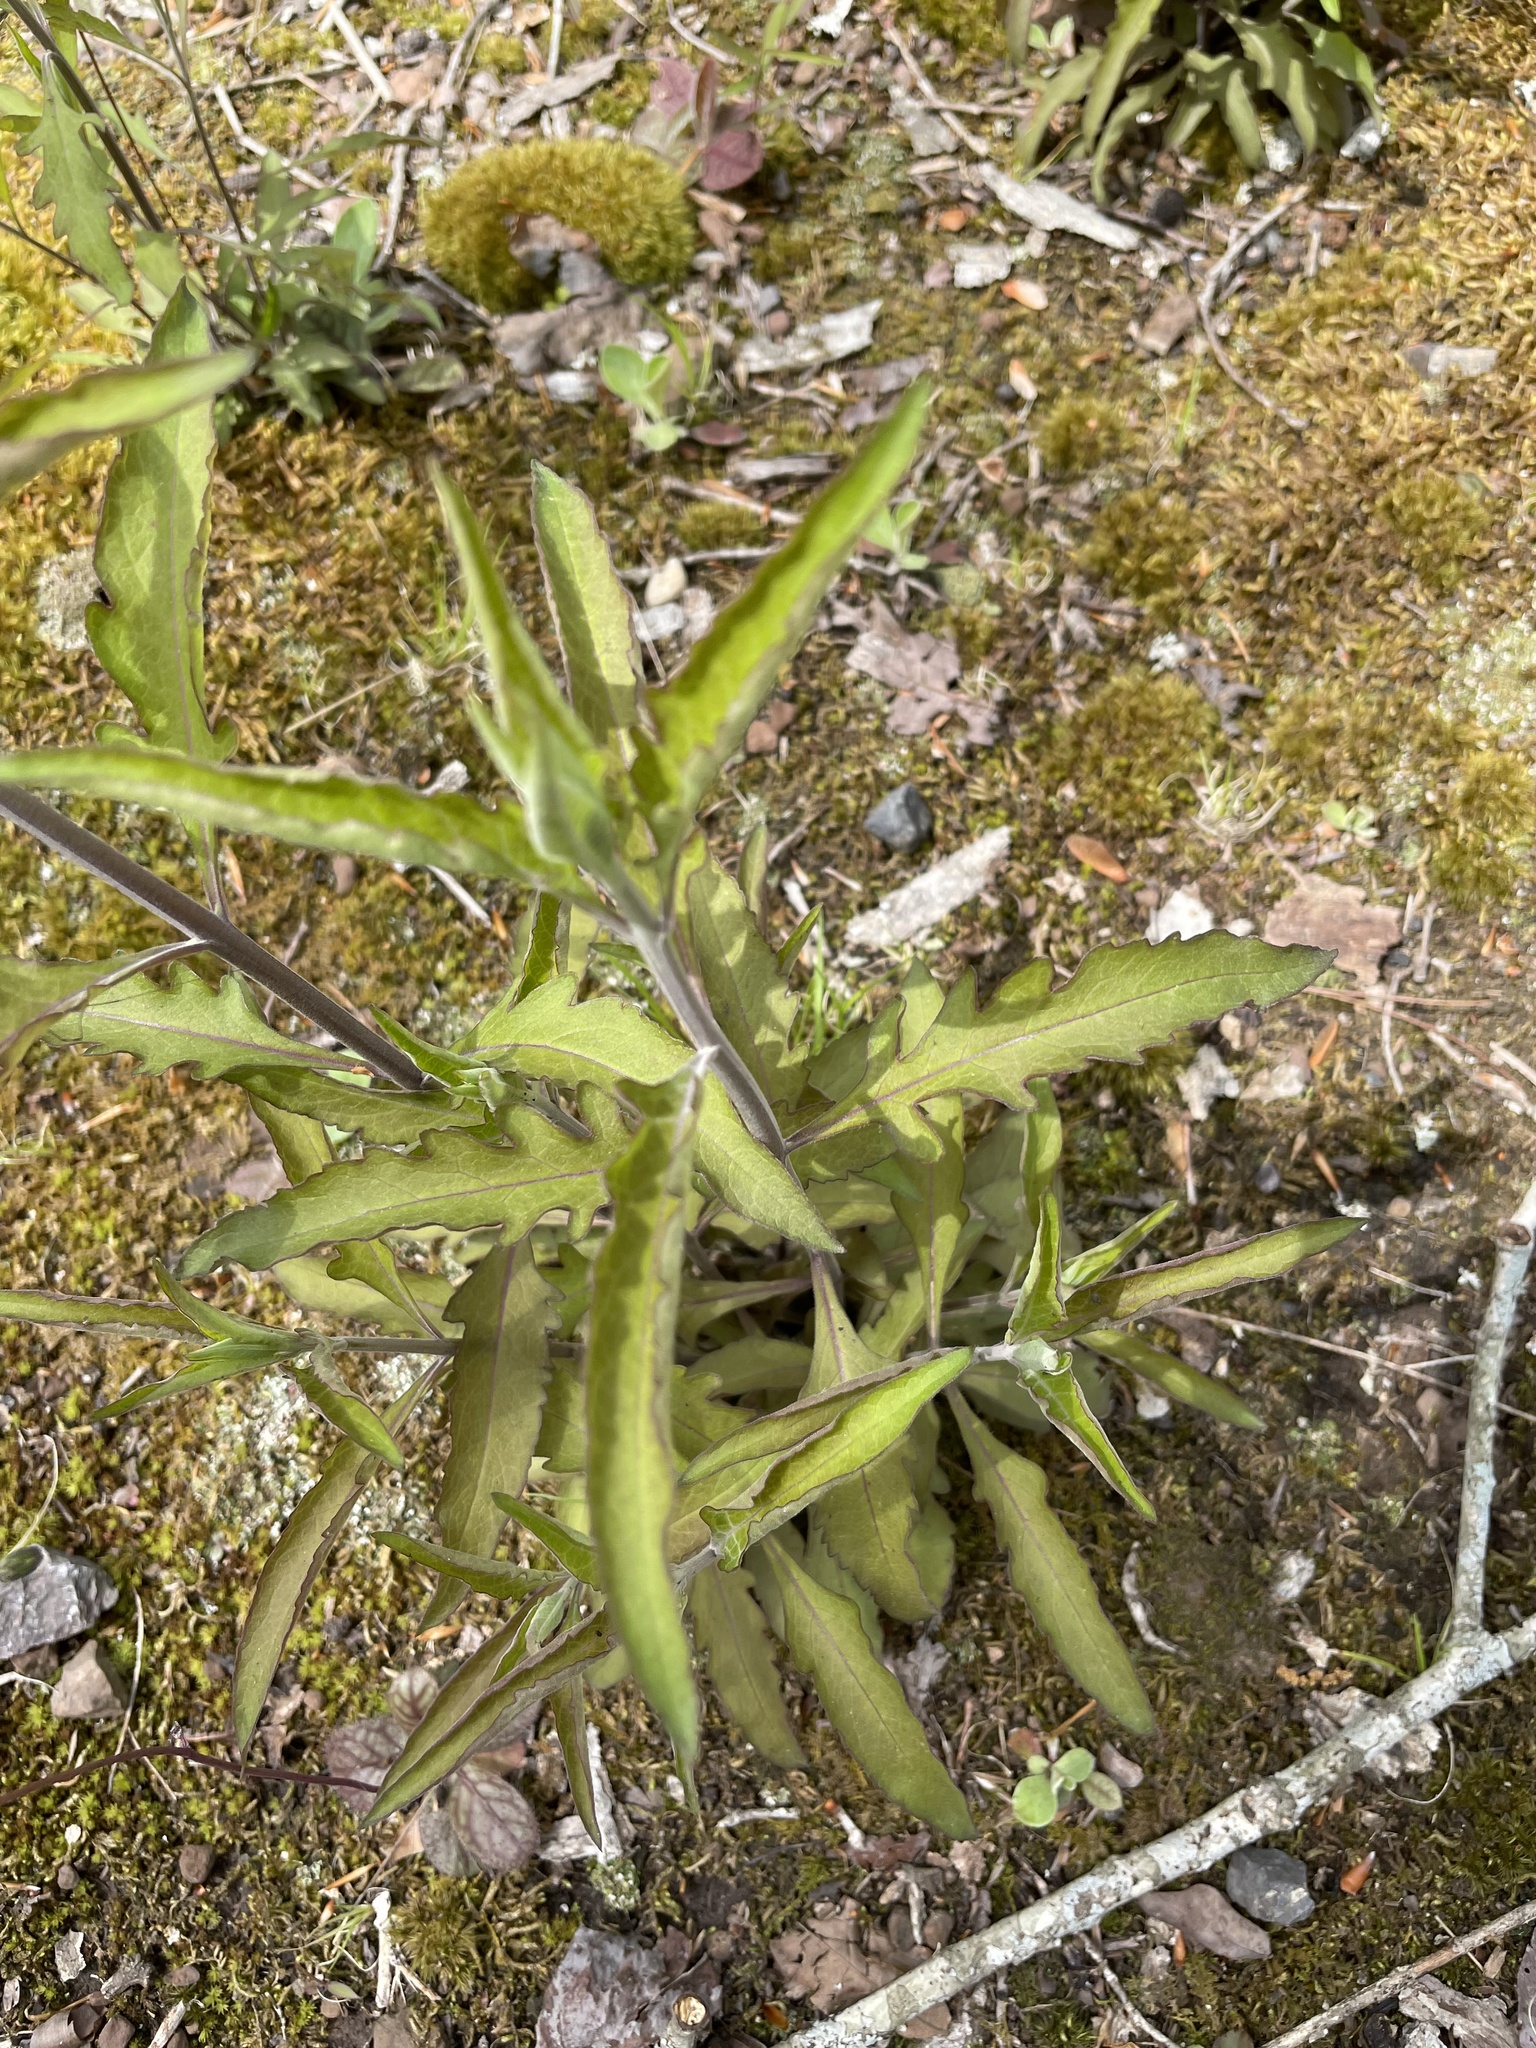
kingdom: Plantae
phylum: Tracheophyta
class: Magnoliopsida
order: Lamiales
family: Orobanchaceae
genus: Aureolaria
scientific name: Aureolaria virginica
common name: Downy false foxglove
